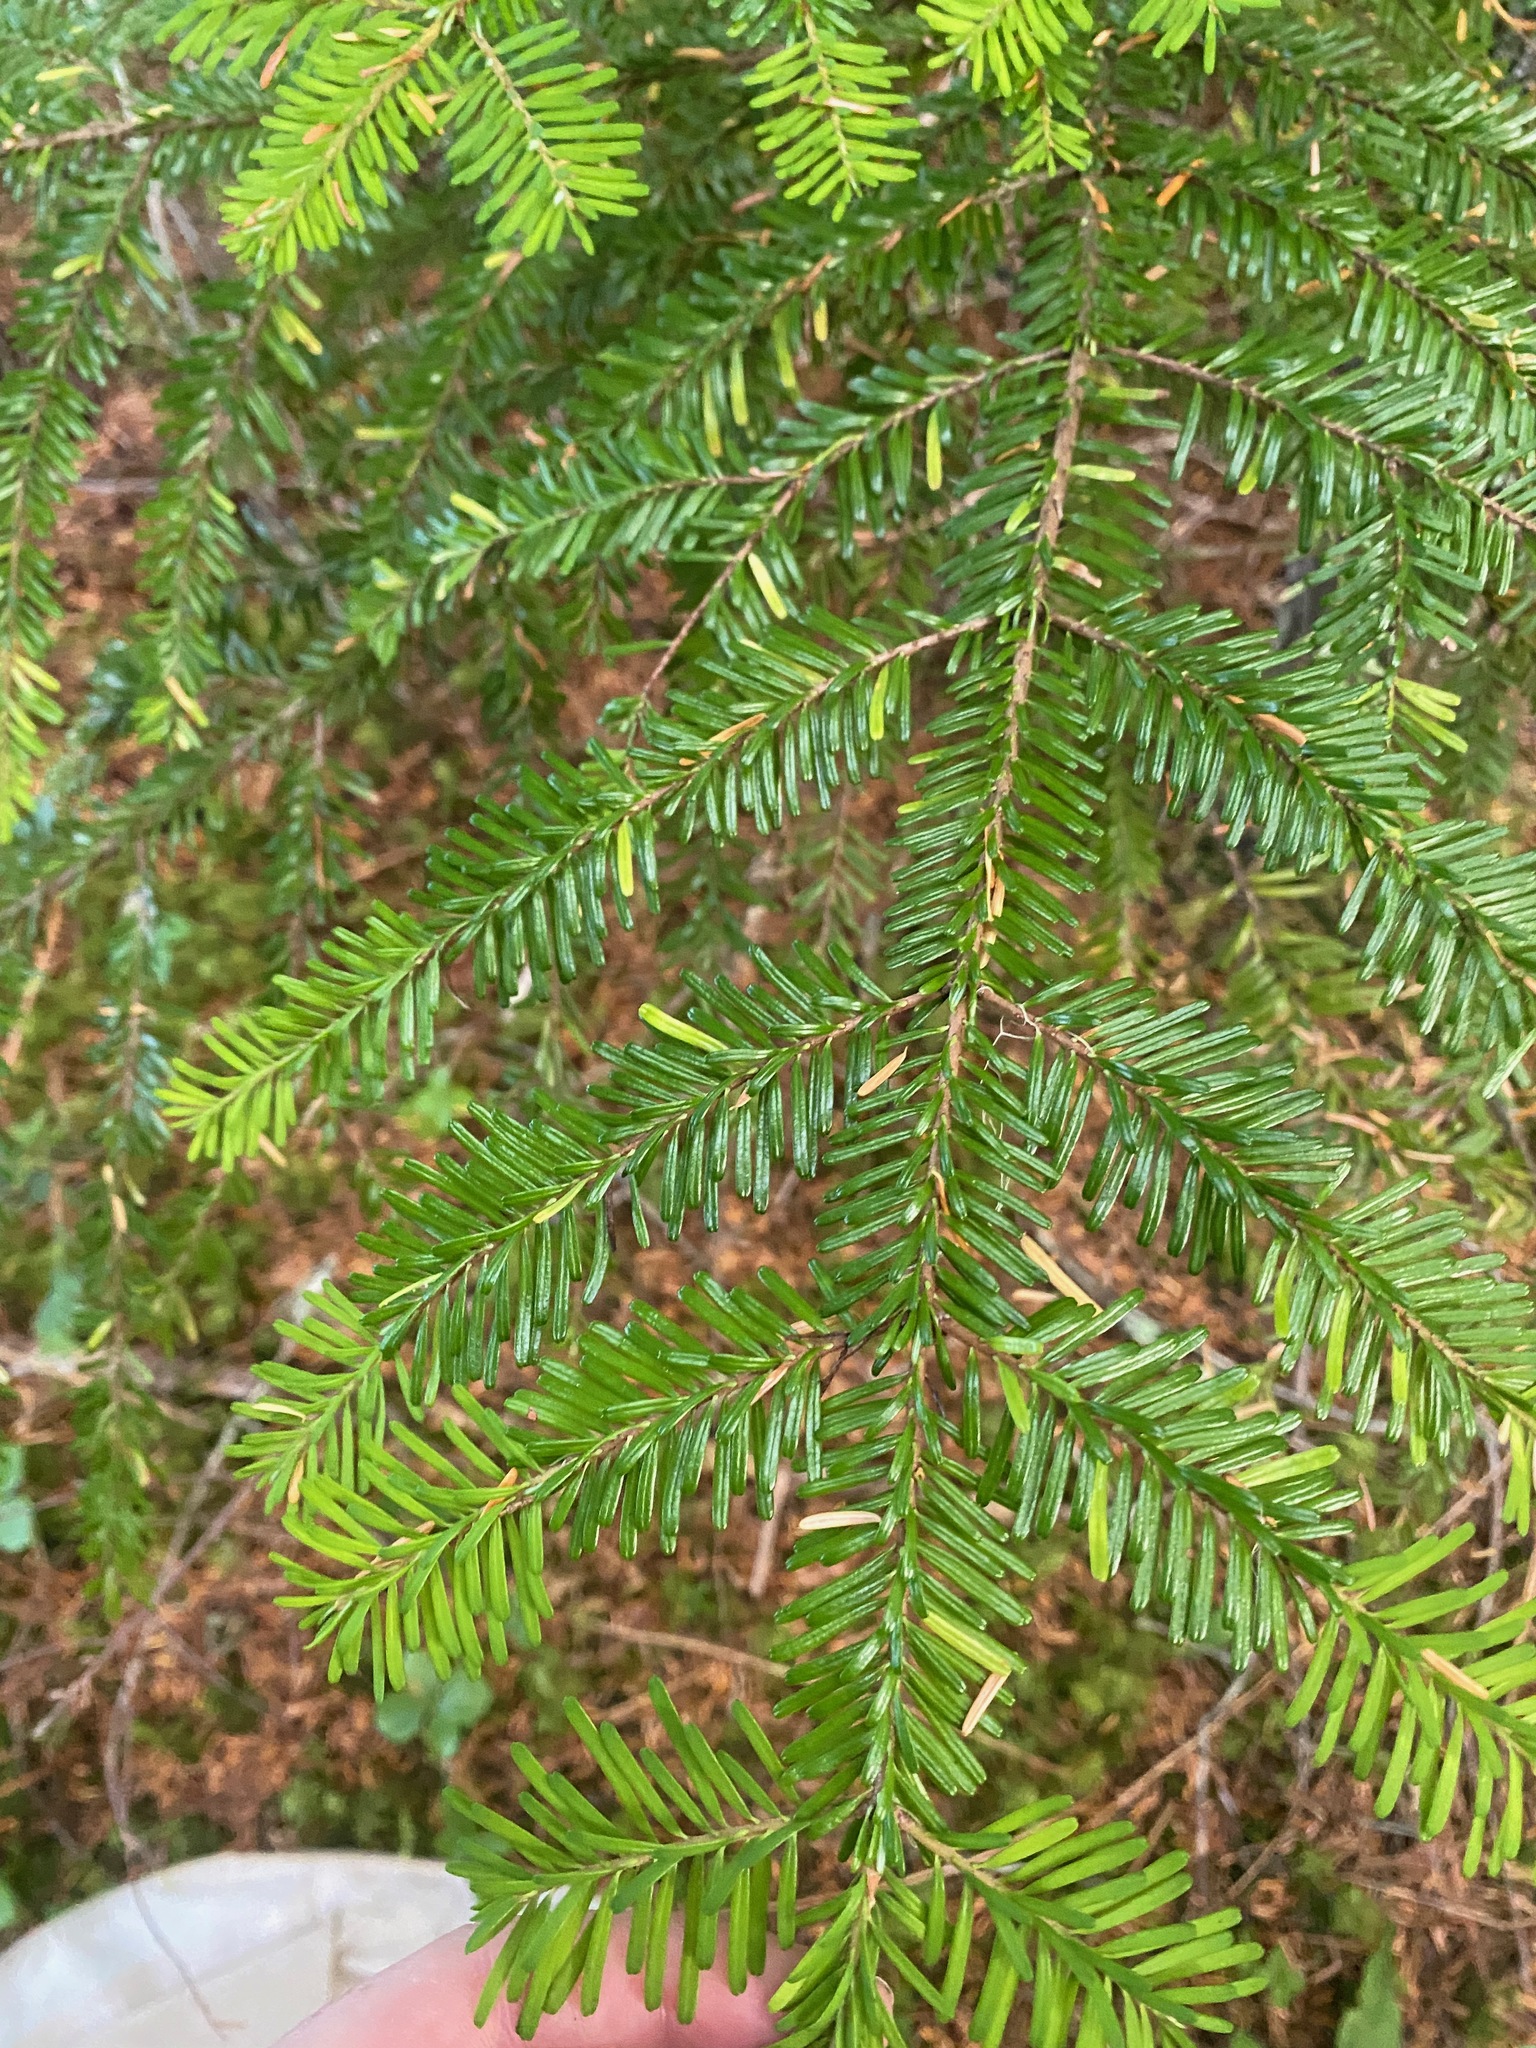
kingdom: Plantae
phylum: Tracheophyta
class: Pinopsida
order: Pinales
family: Pinaceae
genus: Abies
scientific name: Abies amabilis
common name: Pacific silver fir
